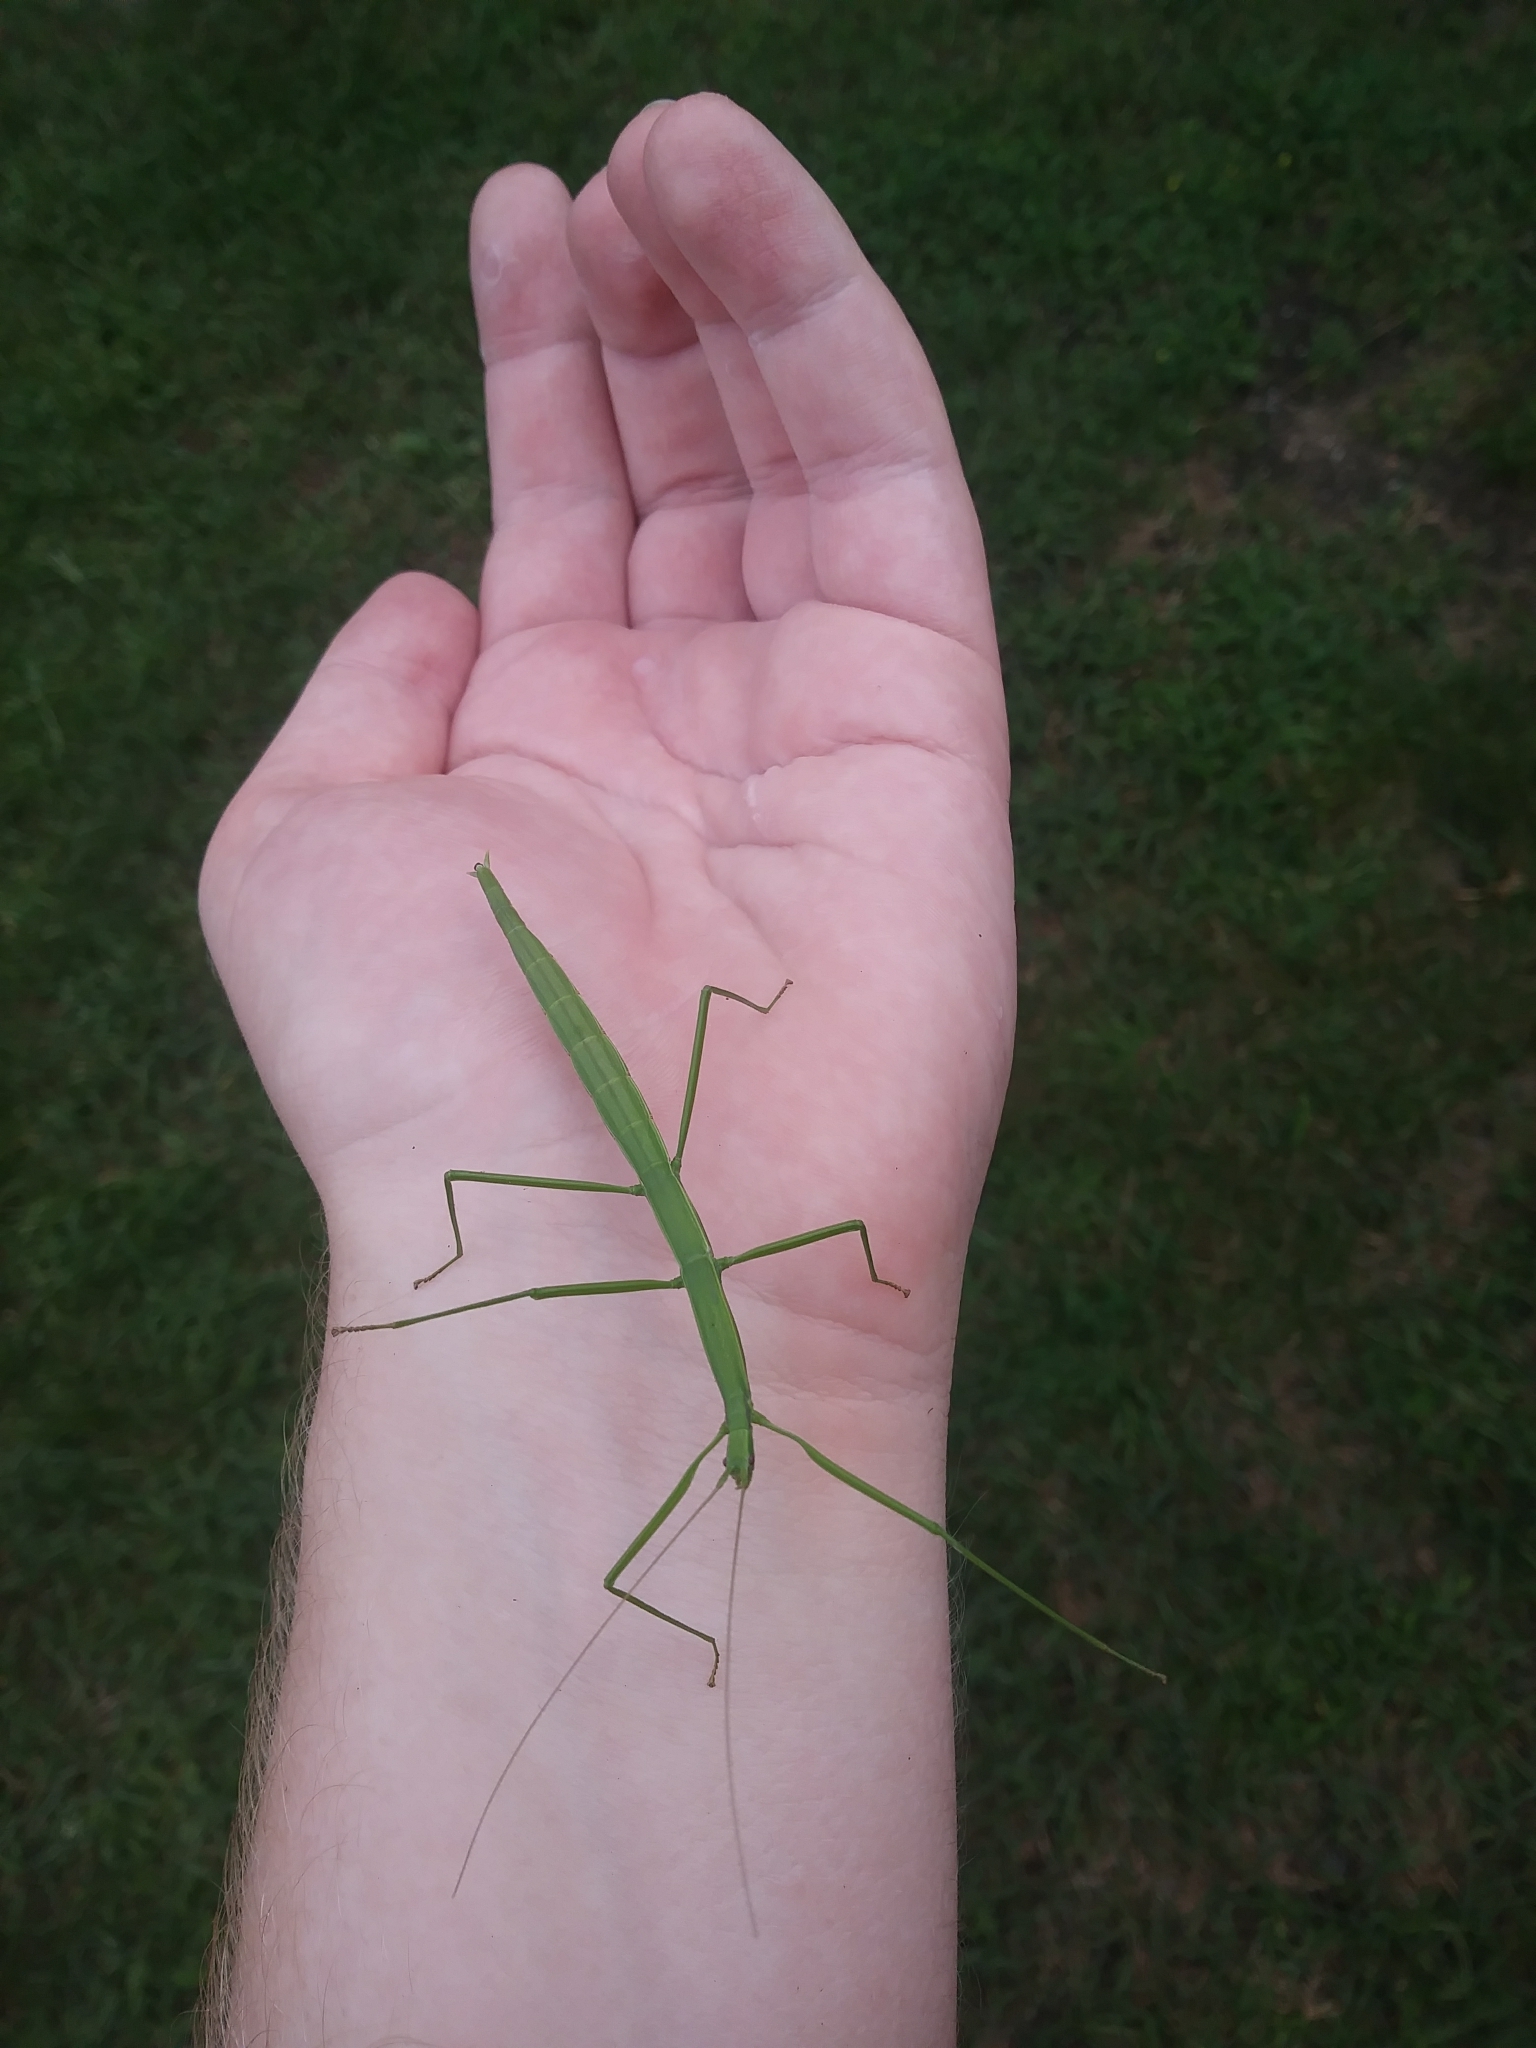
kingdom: Animalia
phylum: Arthropoda
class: Insecta
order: Phasmida
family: Diapheromeridae
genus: Manomera
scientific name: Manomera blatchleyi
